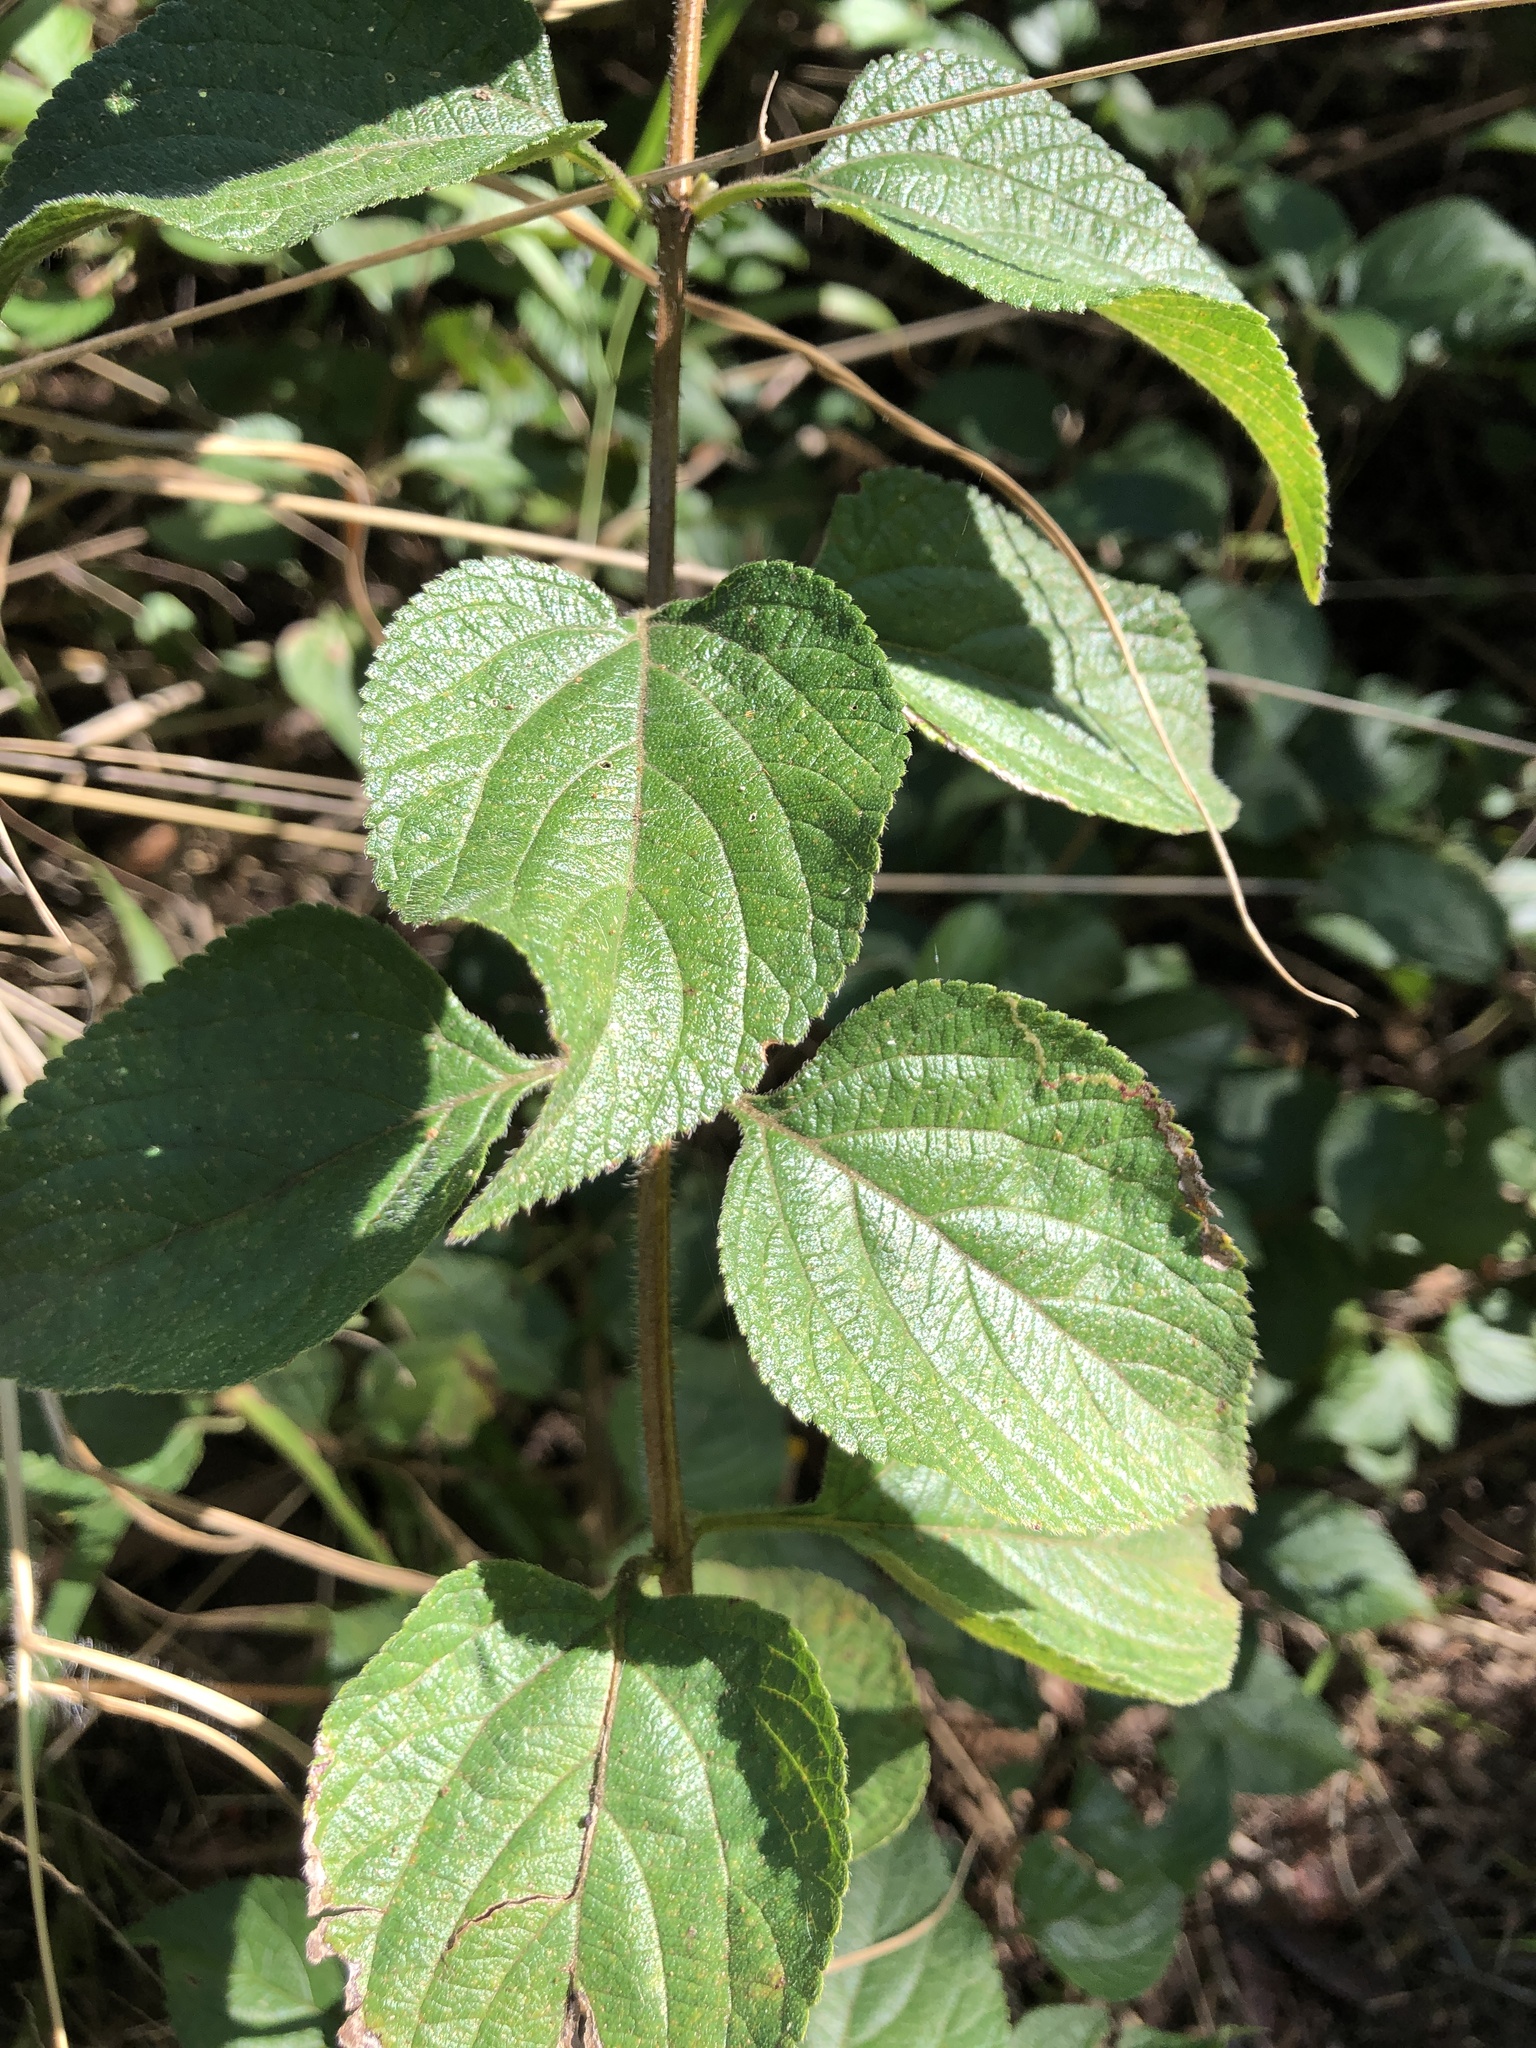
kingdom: Plantae
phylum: Tracheophyta
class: Magnoliopsida
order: Lamiales
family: Verbenaceae
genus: Lantana
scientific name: Lantana camara
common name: Lantana
